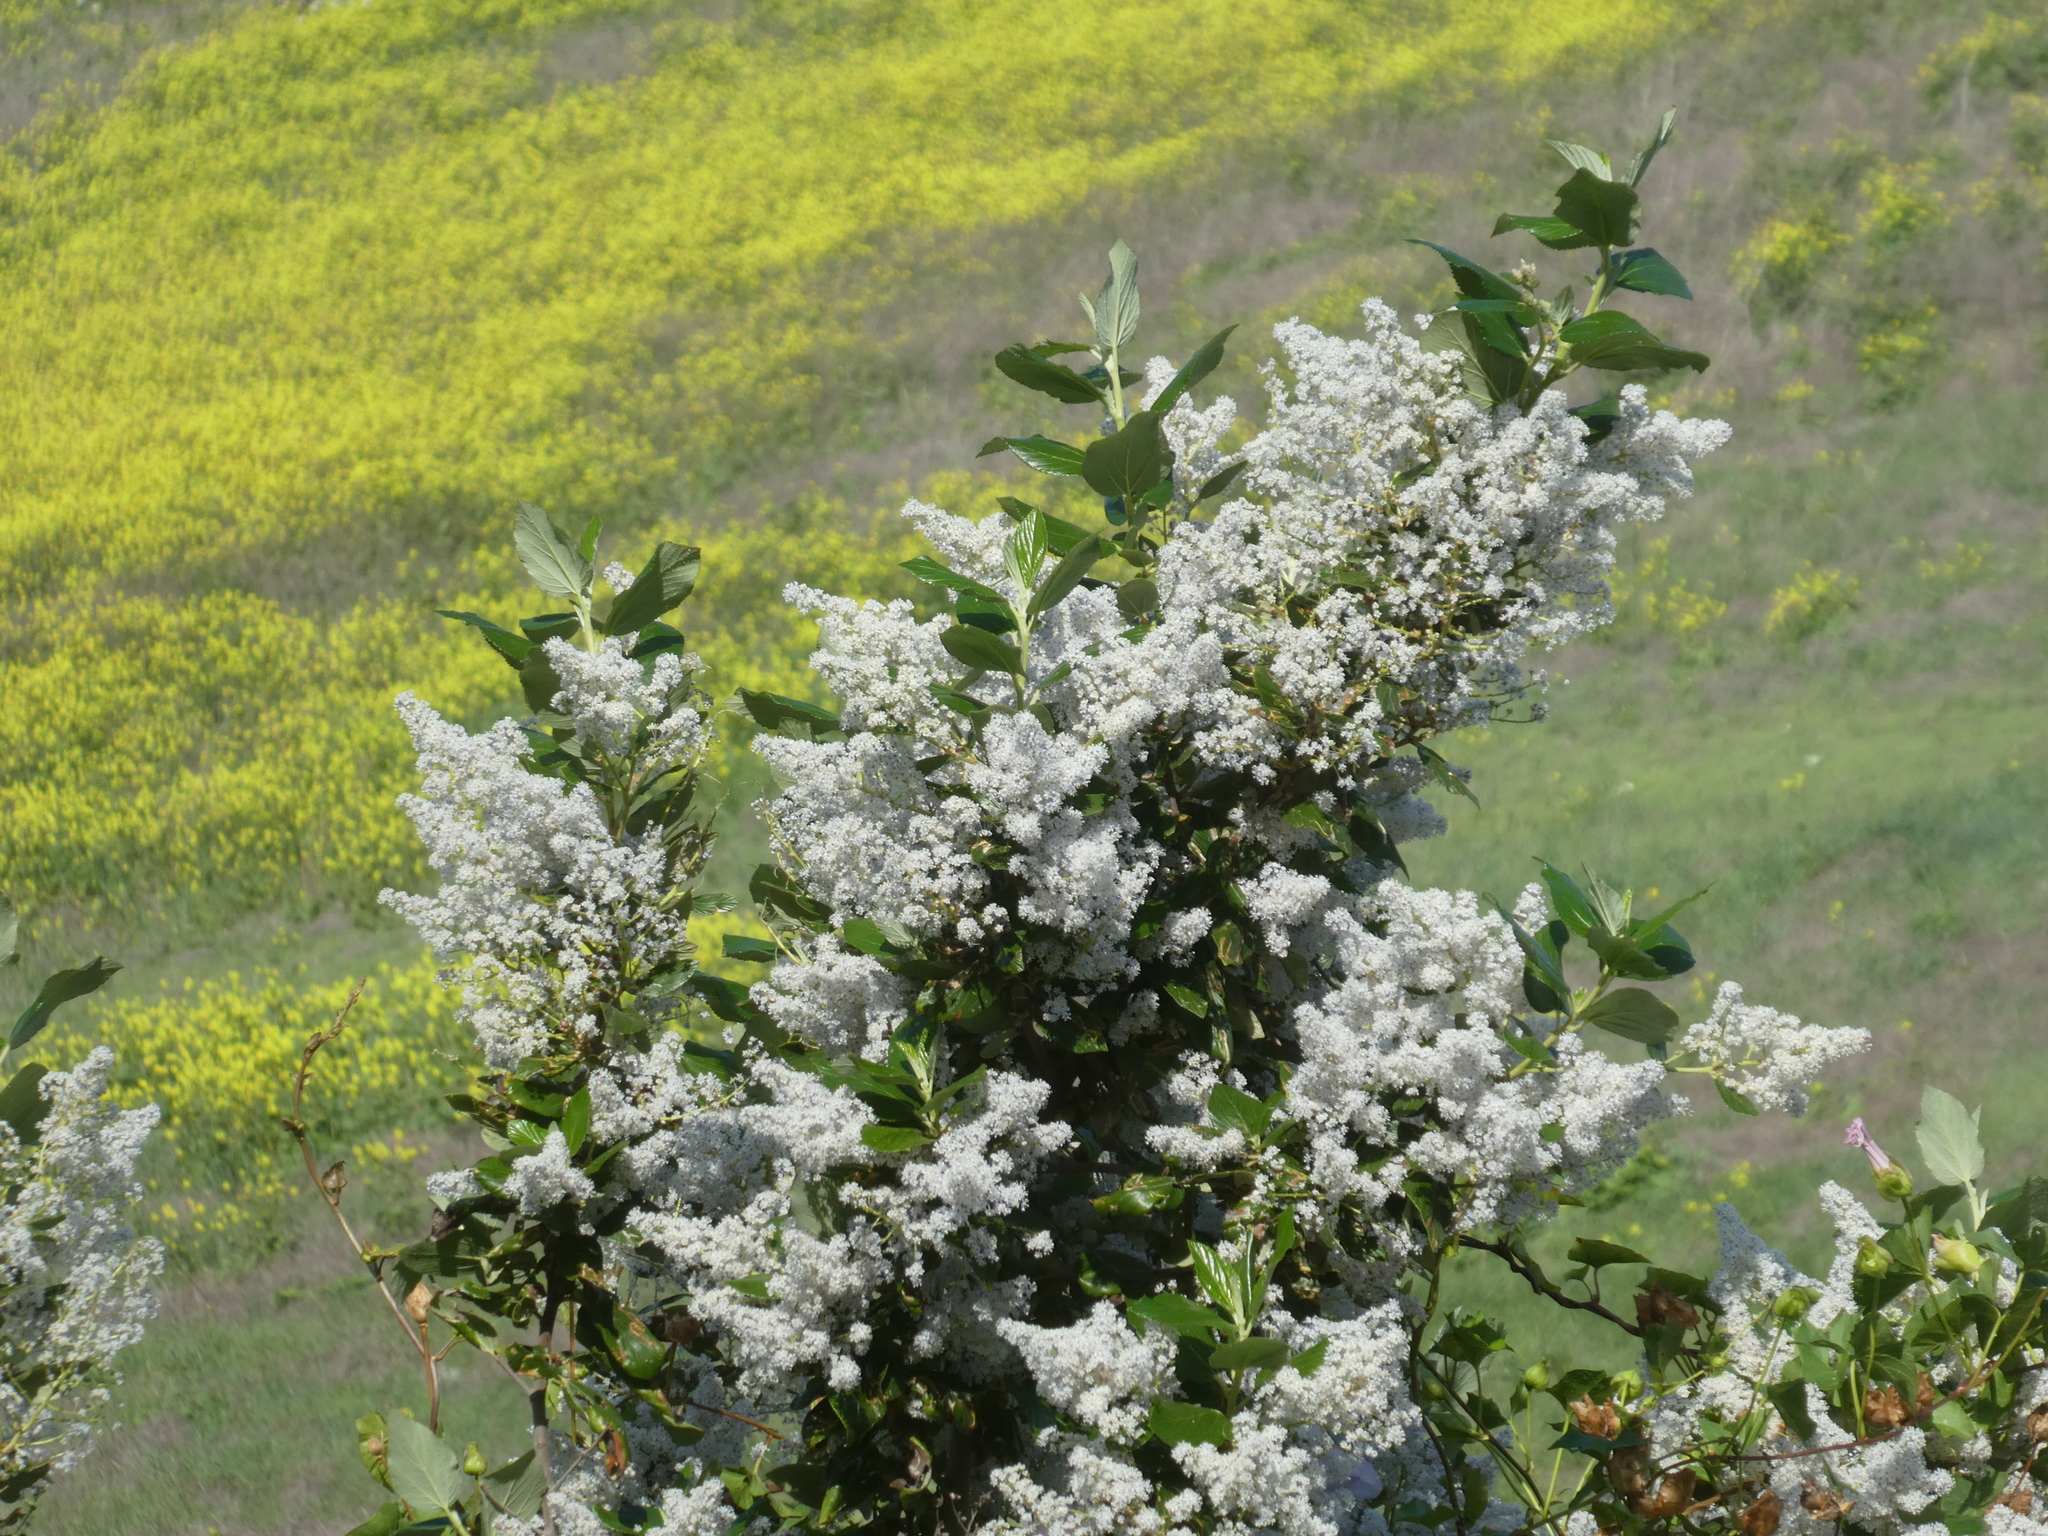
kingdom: Plantae
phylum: Tracheophyta
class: Magnoliopsida
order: Rosales
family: Rhamnaceae
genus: Ceanothus
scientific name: Ceanothus arboreus
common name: Catalina mountain-lilac
